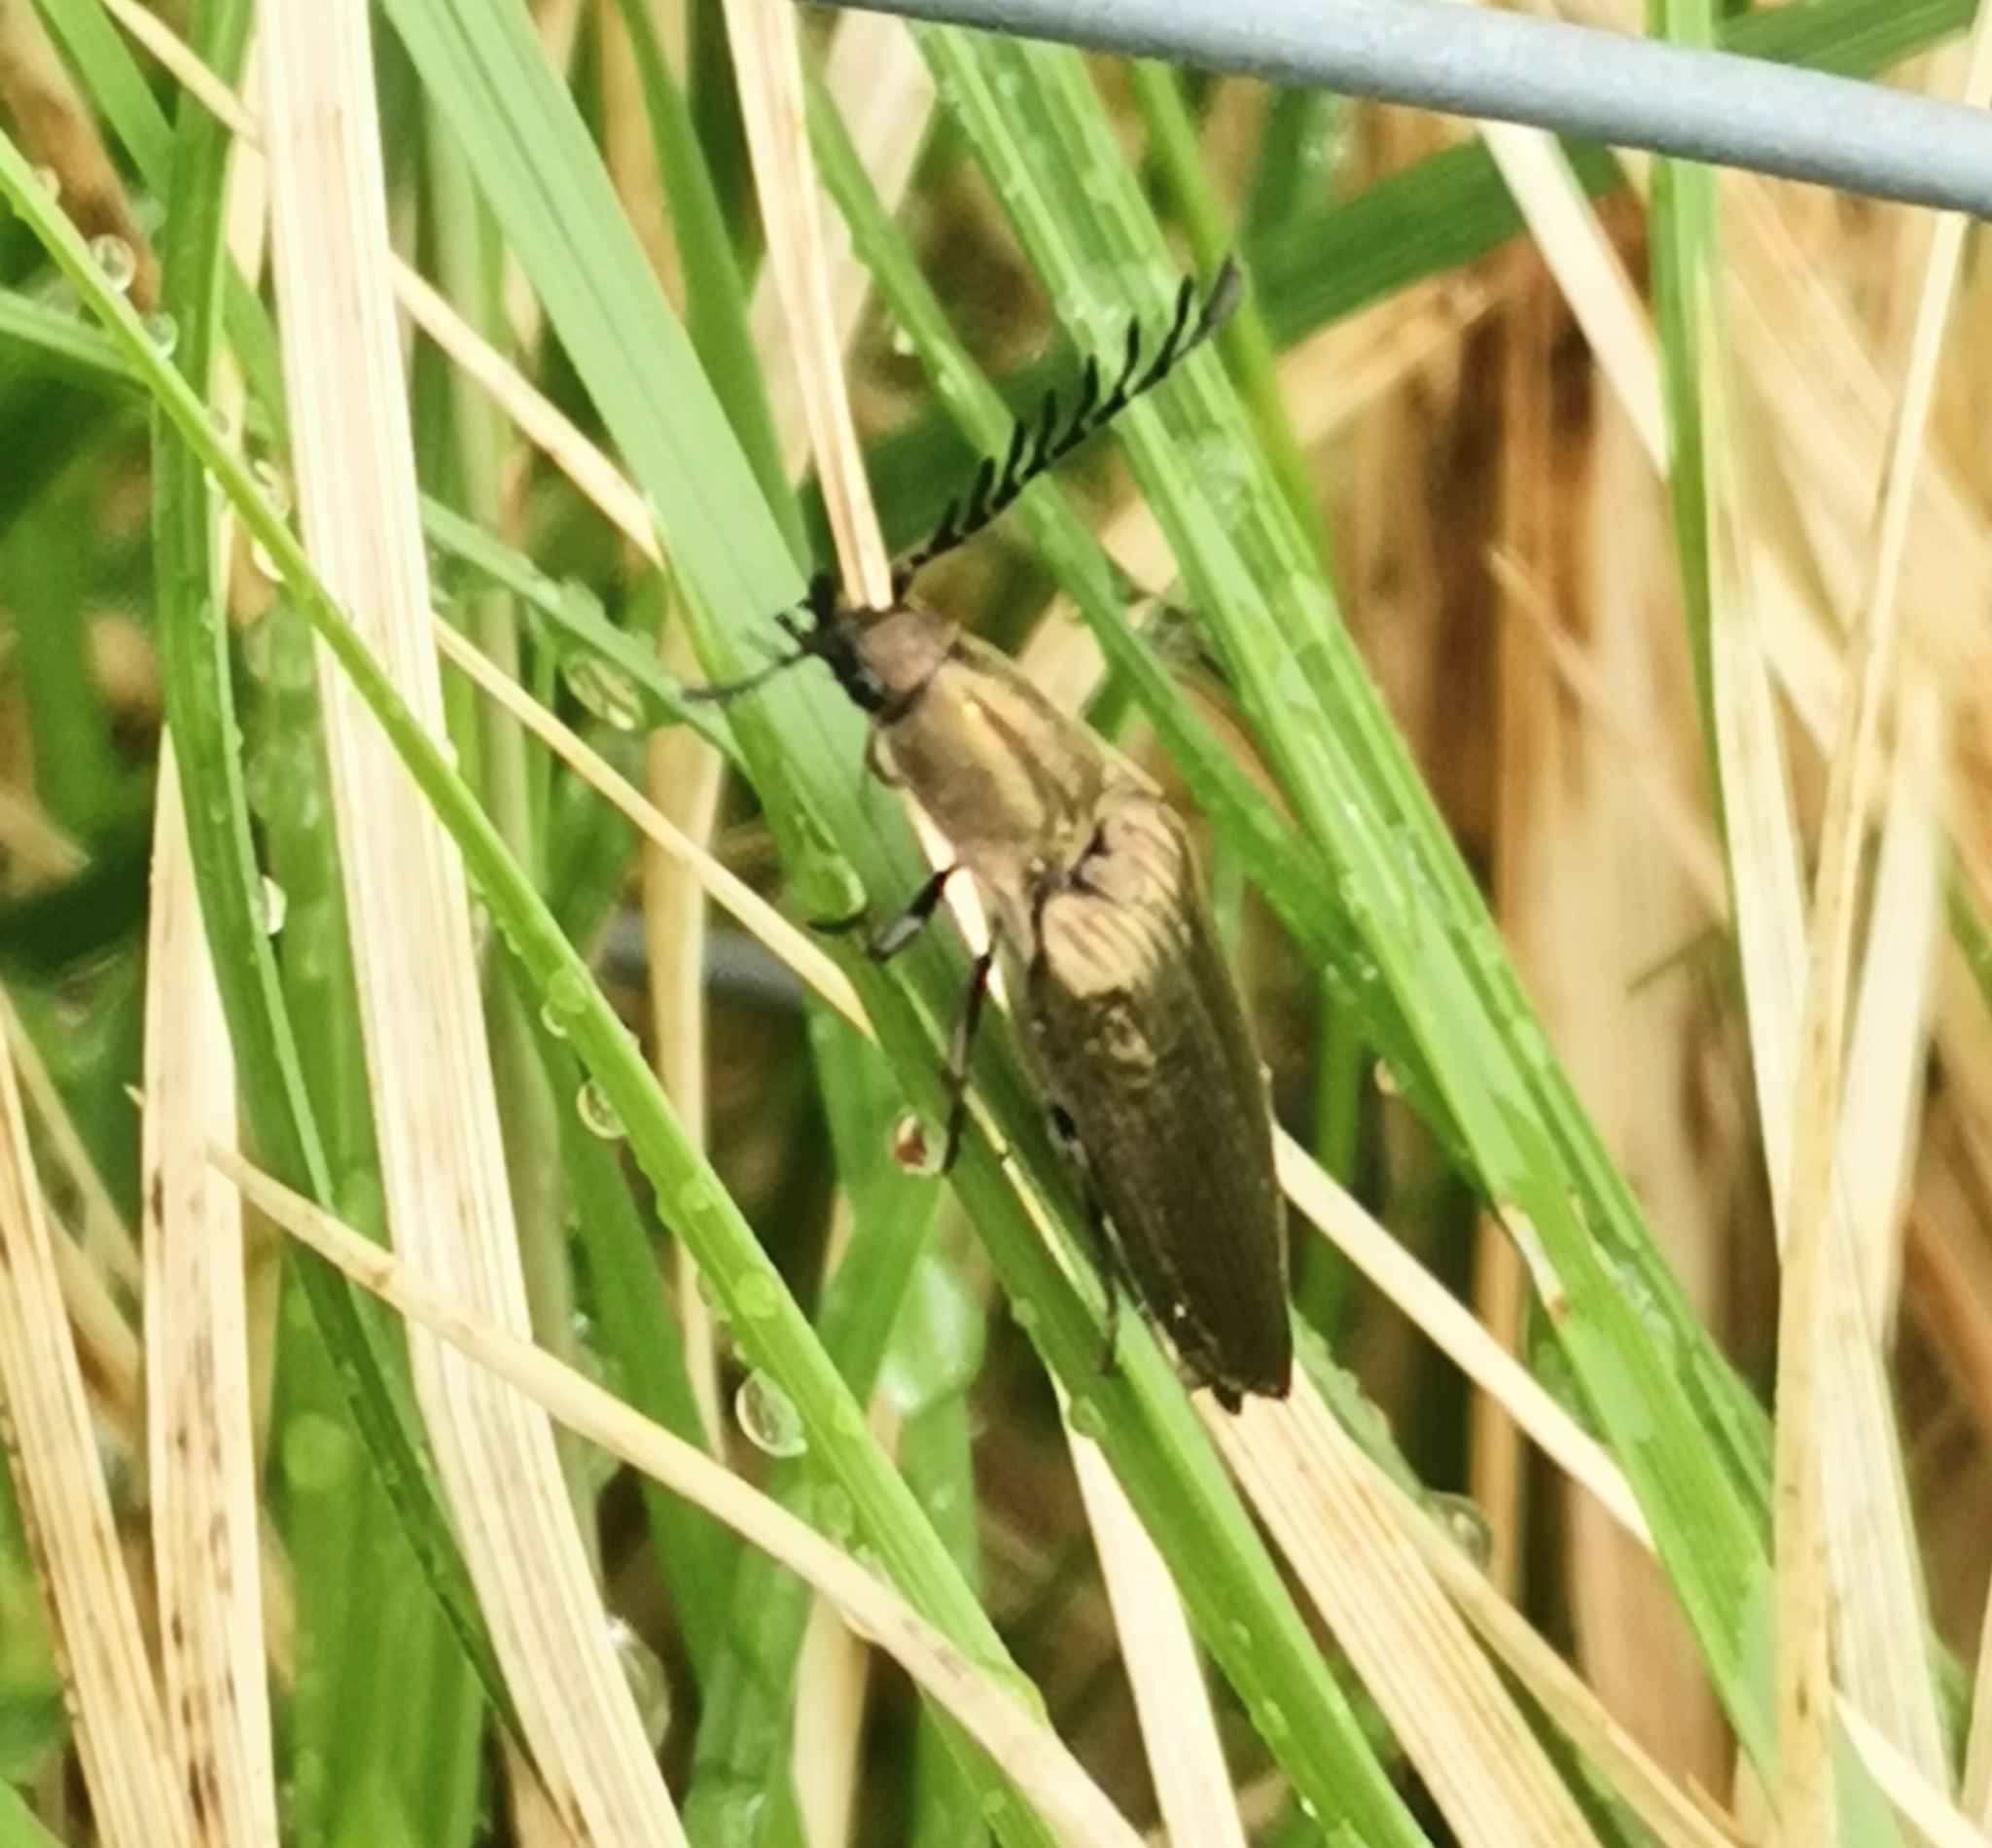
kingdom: Animalia
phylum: Arthropoda
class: Insecta
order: Coleoptera
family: Elateridae
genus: Ctenicera
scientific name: Ctenicera pectinicornis
